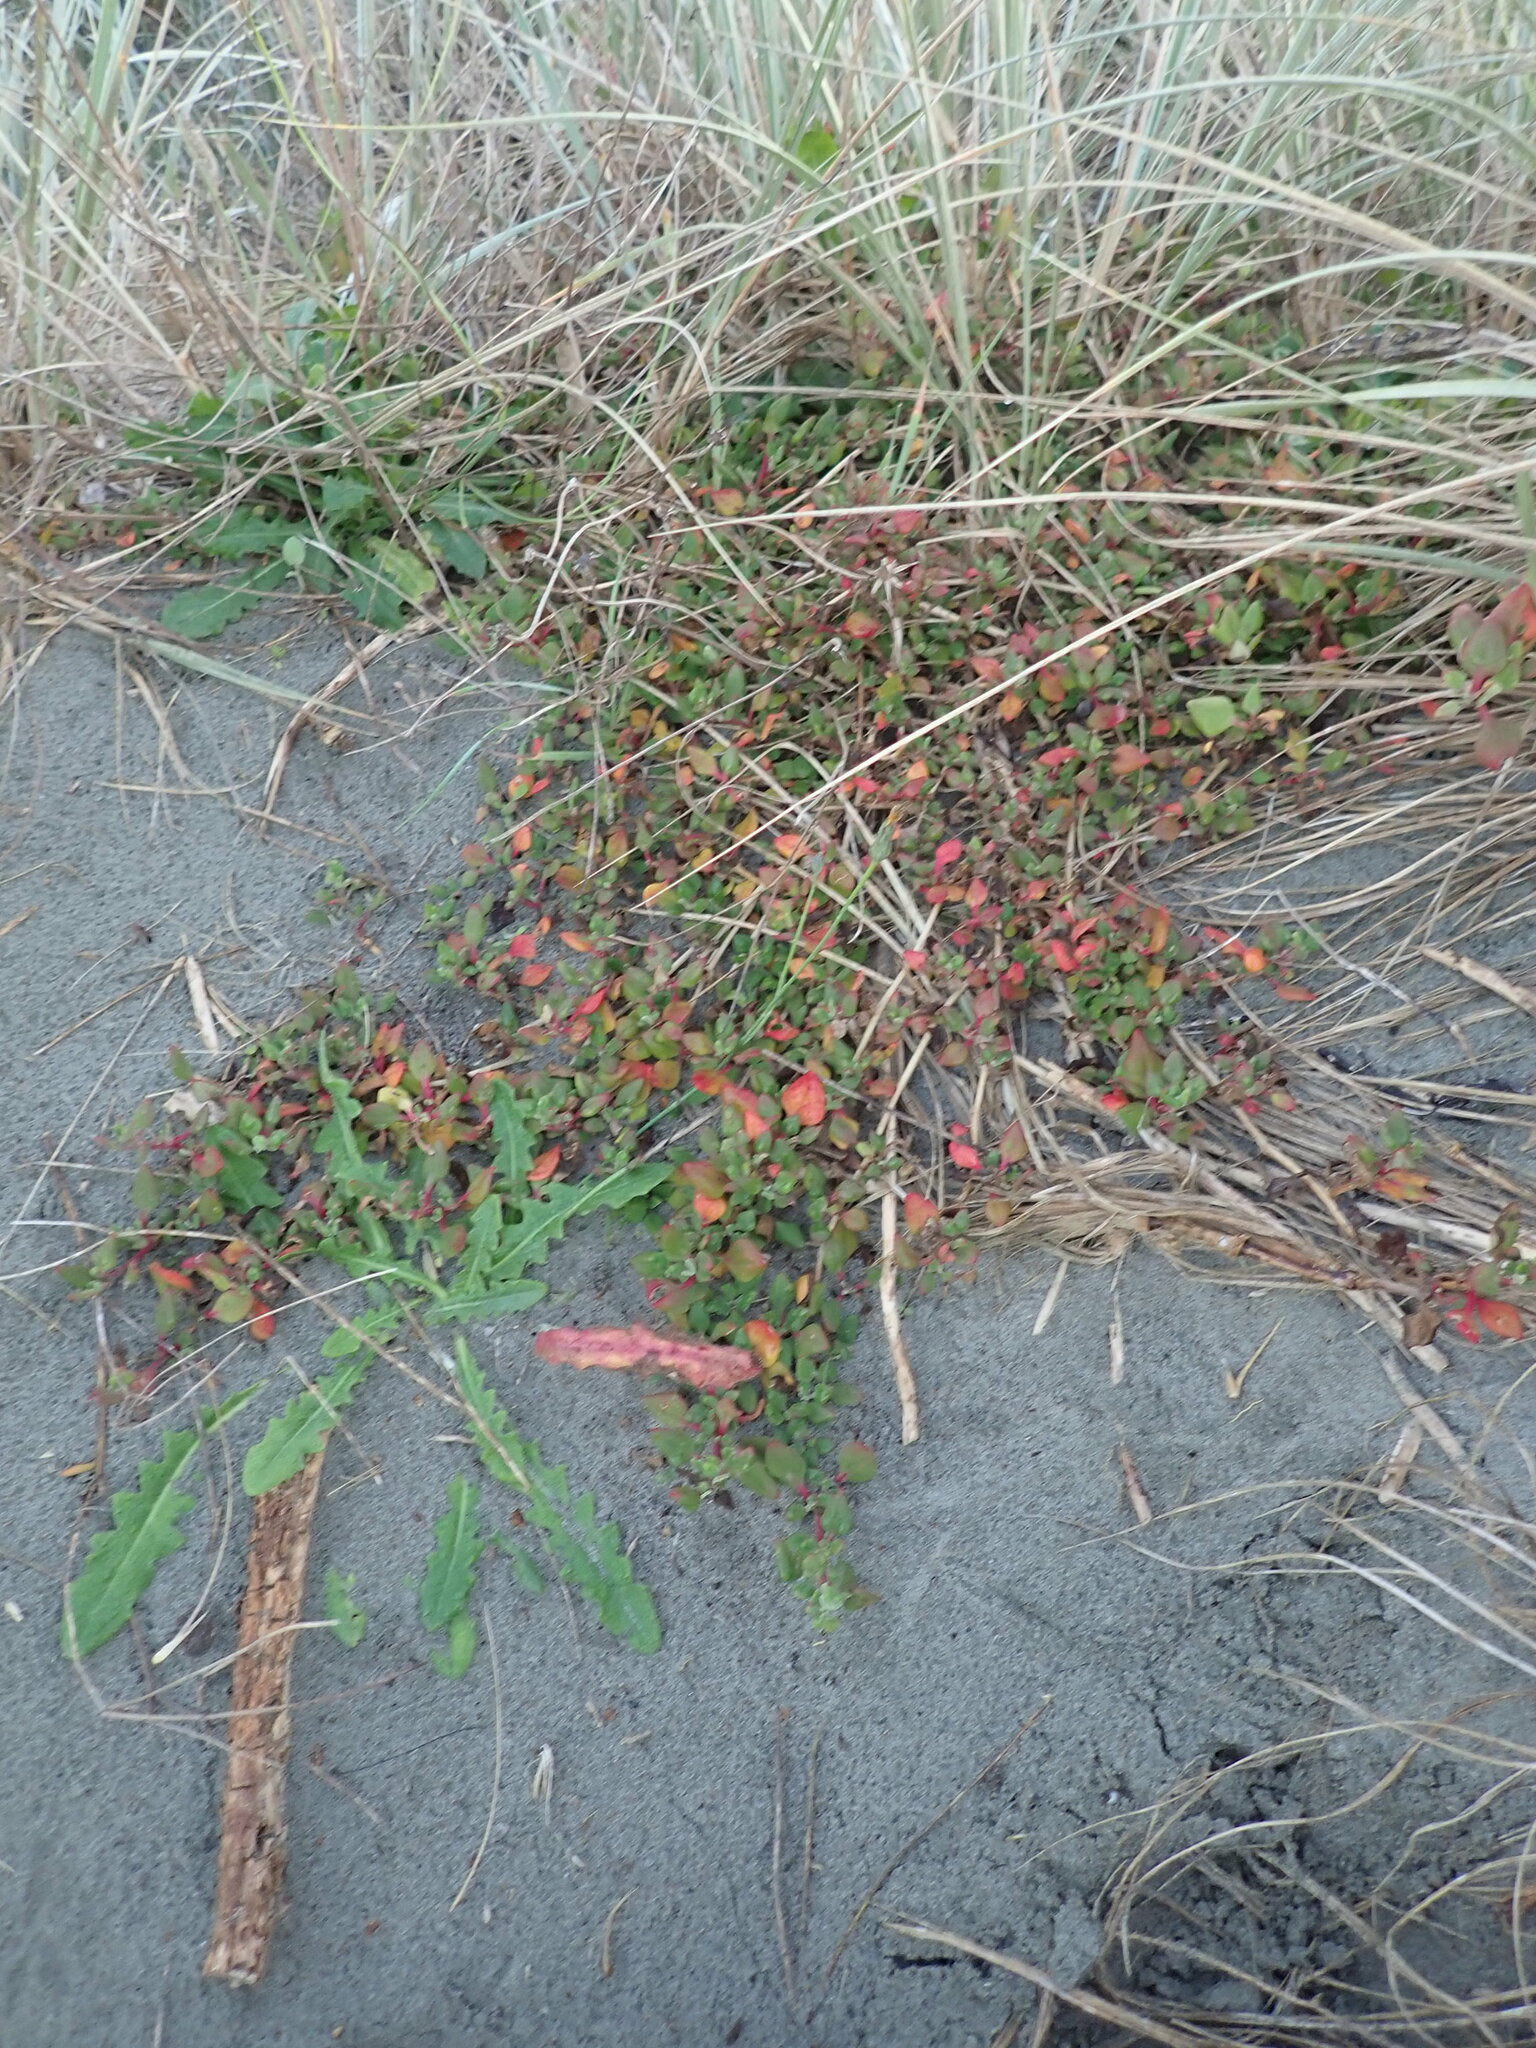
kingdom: Plantae
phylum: Tracheophyta
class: Magnoliopsida
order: Caryophyllales
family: Aizoaceae
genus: Tetragonia
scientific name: Tetragonia implexicoma
